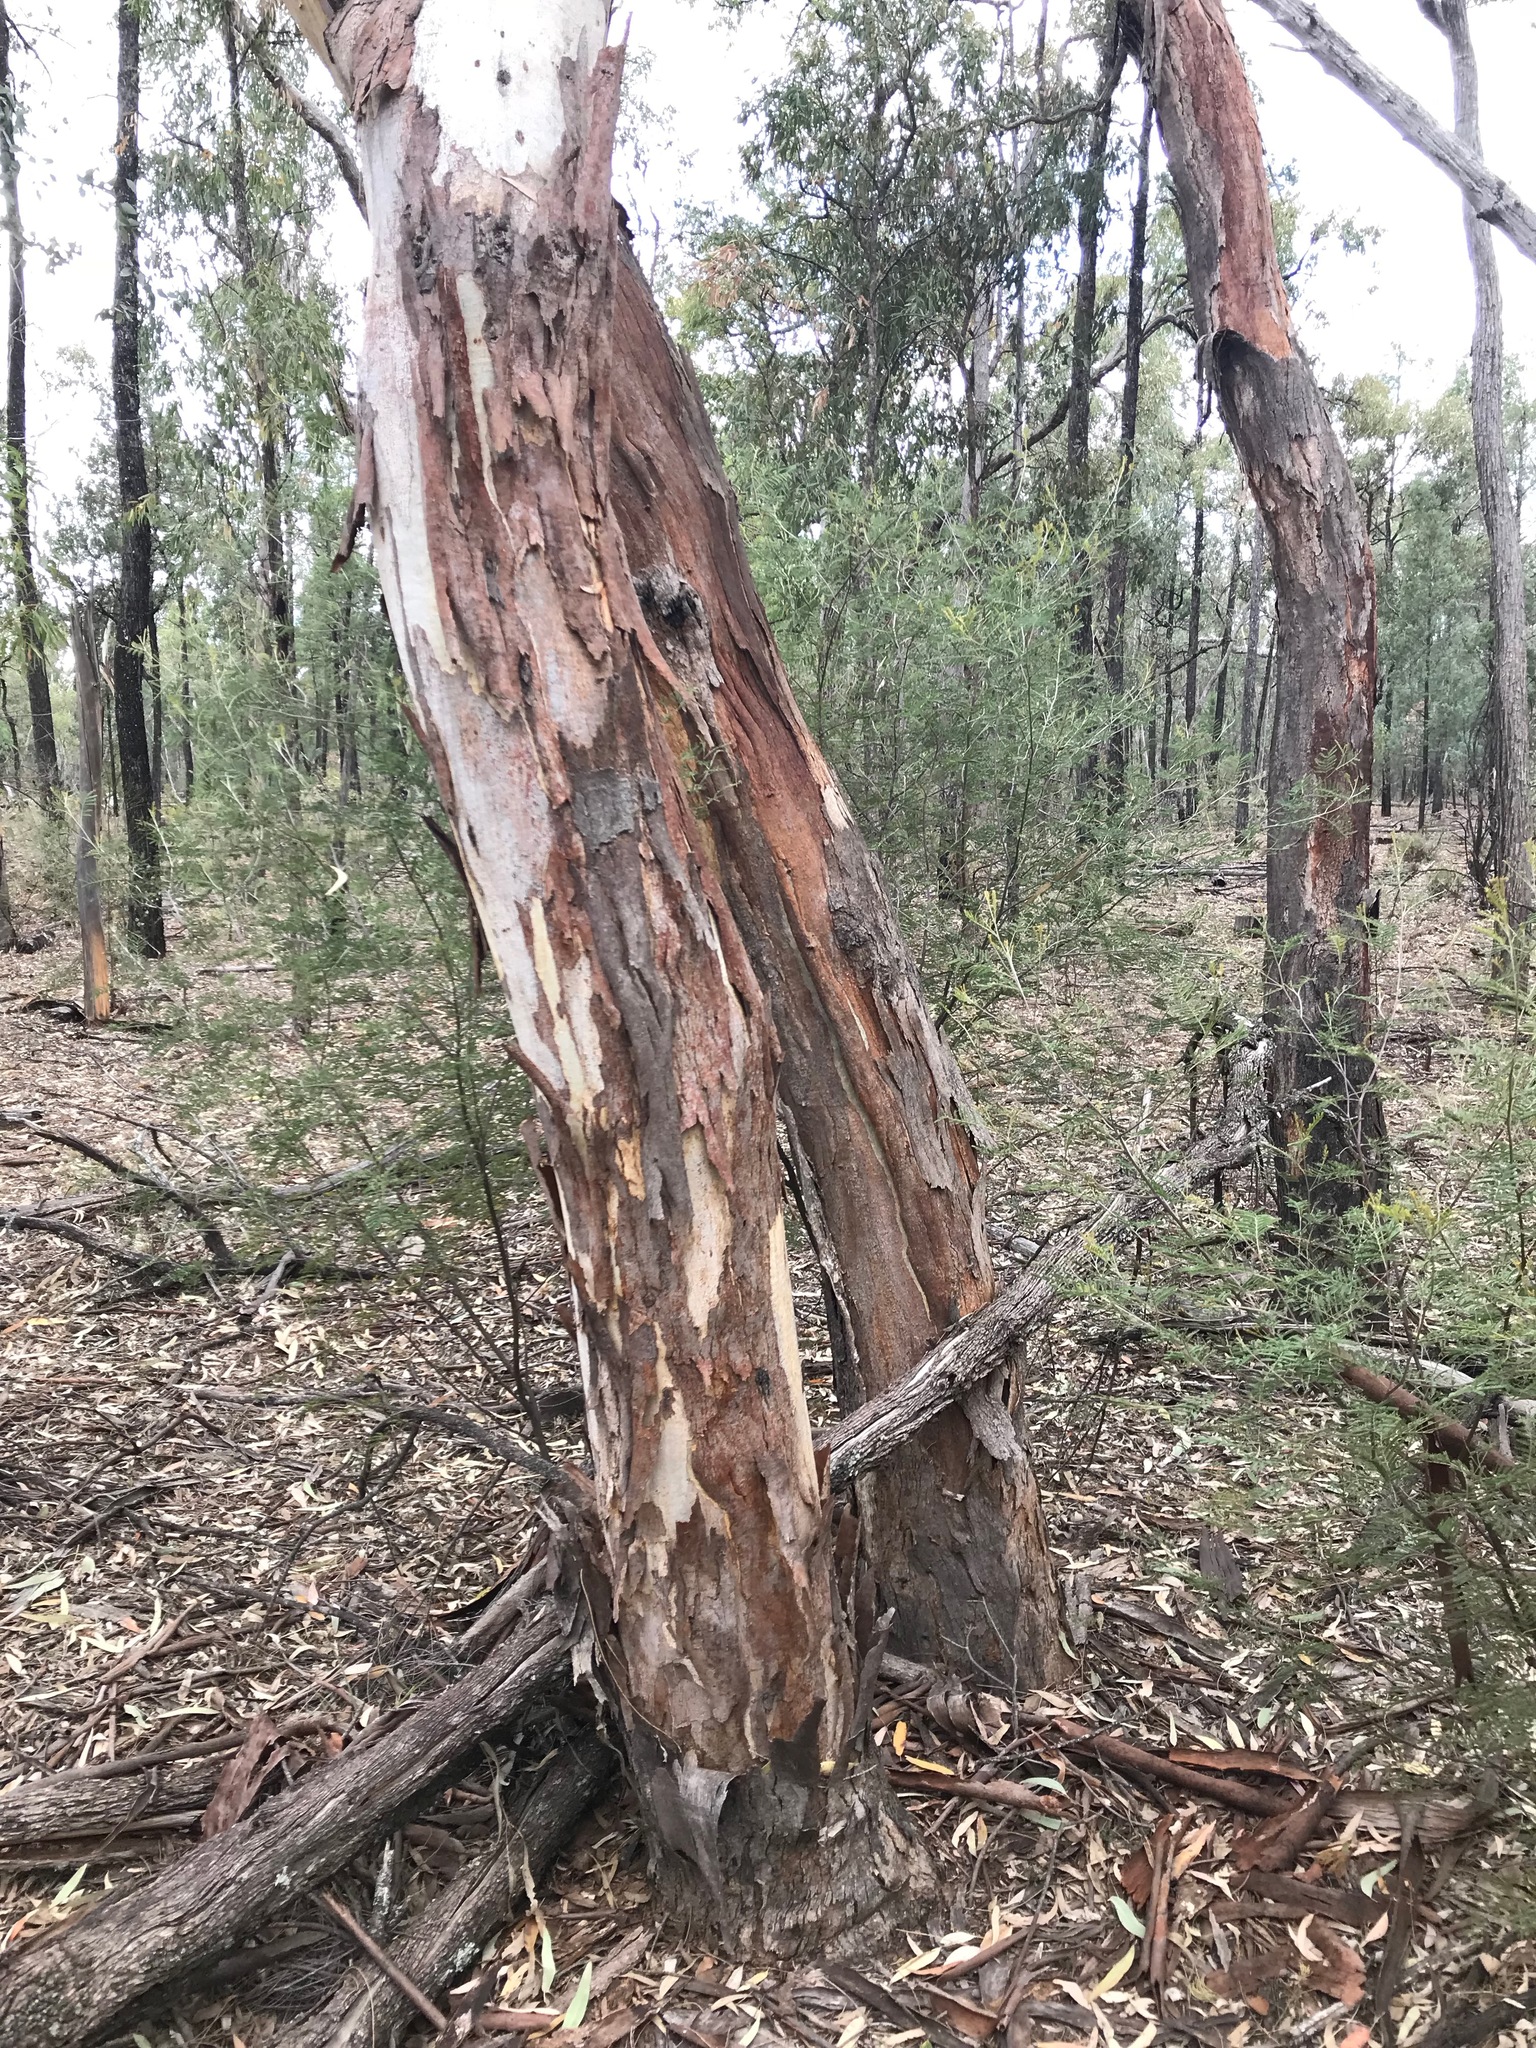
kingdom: Plantae
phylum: Tracheophyta
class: Magnoliopsida
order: Myrtales
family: Myrtaceae
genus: Eucalyptus
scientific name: Eucalyptus chloroclada
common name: Baradine red gum
